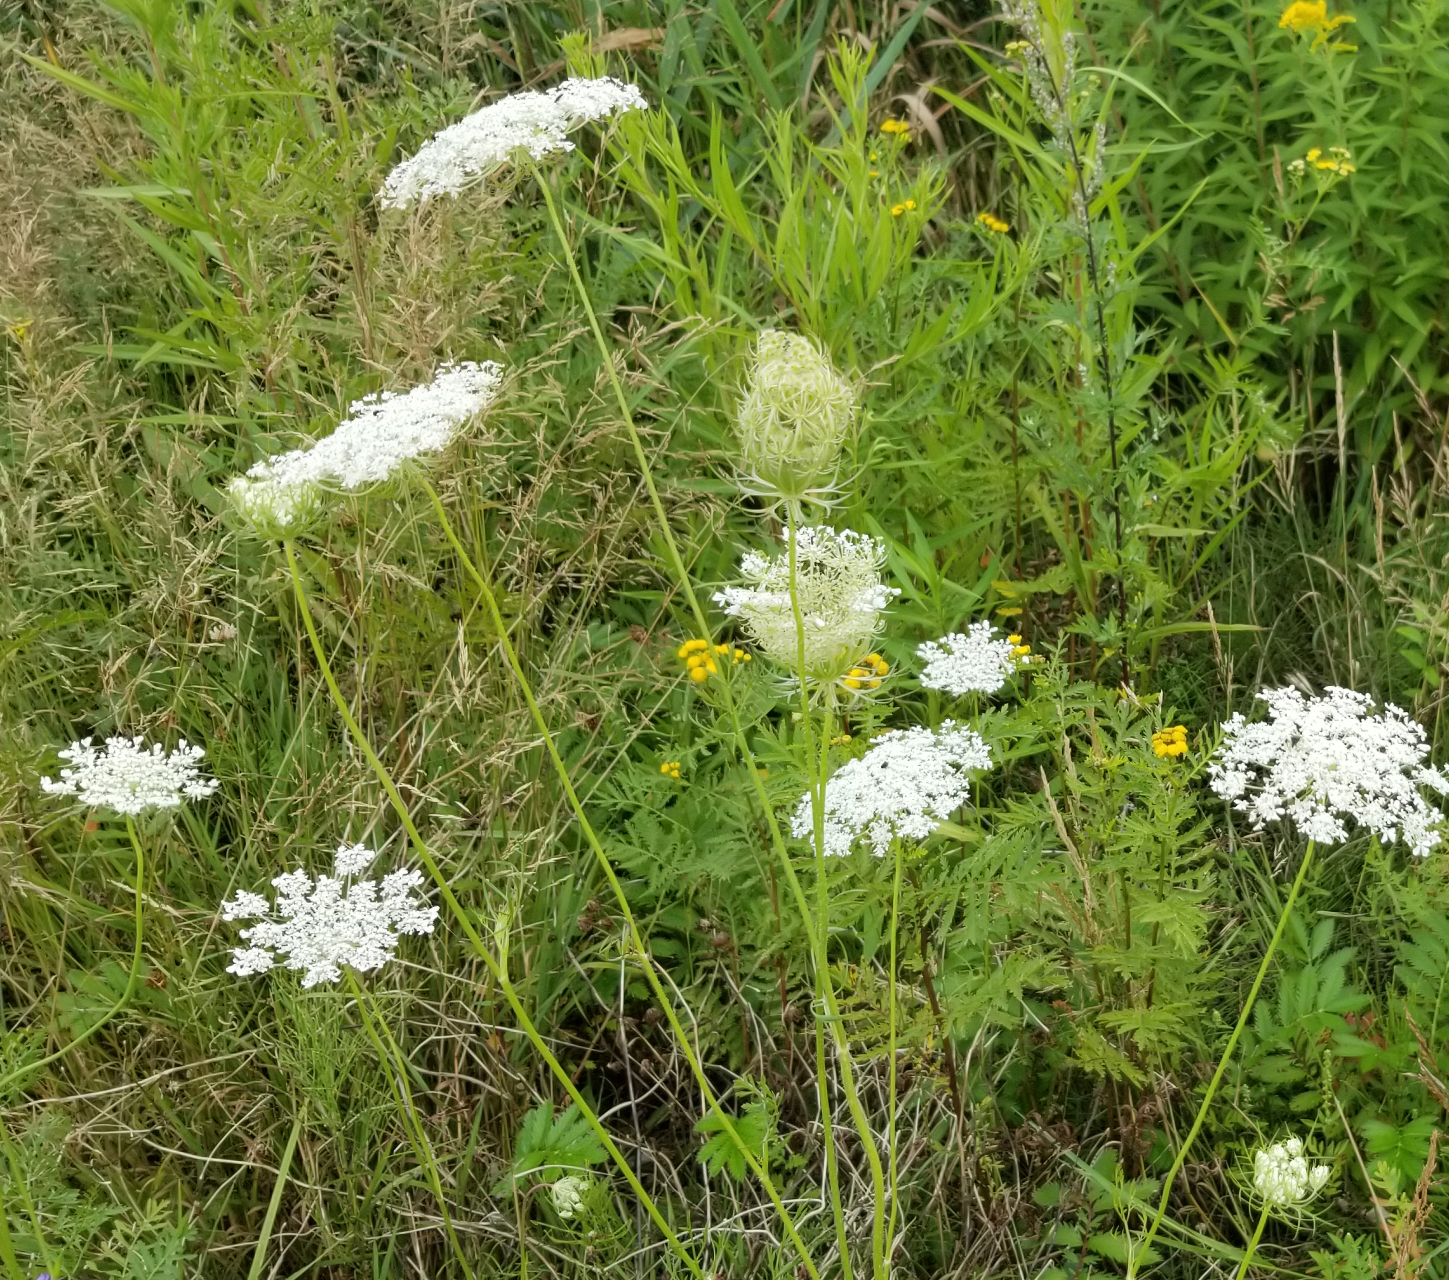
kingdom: Plantae
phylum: Tracheophyta
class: Magnoliopsida
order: Apiales
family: Apiaceae
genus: Daucus
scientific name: Daucus carota
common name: Wild carrot
